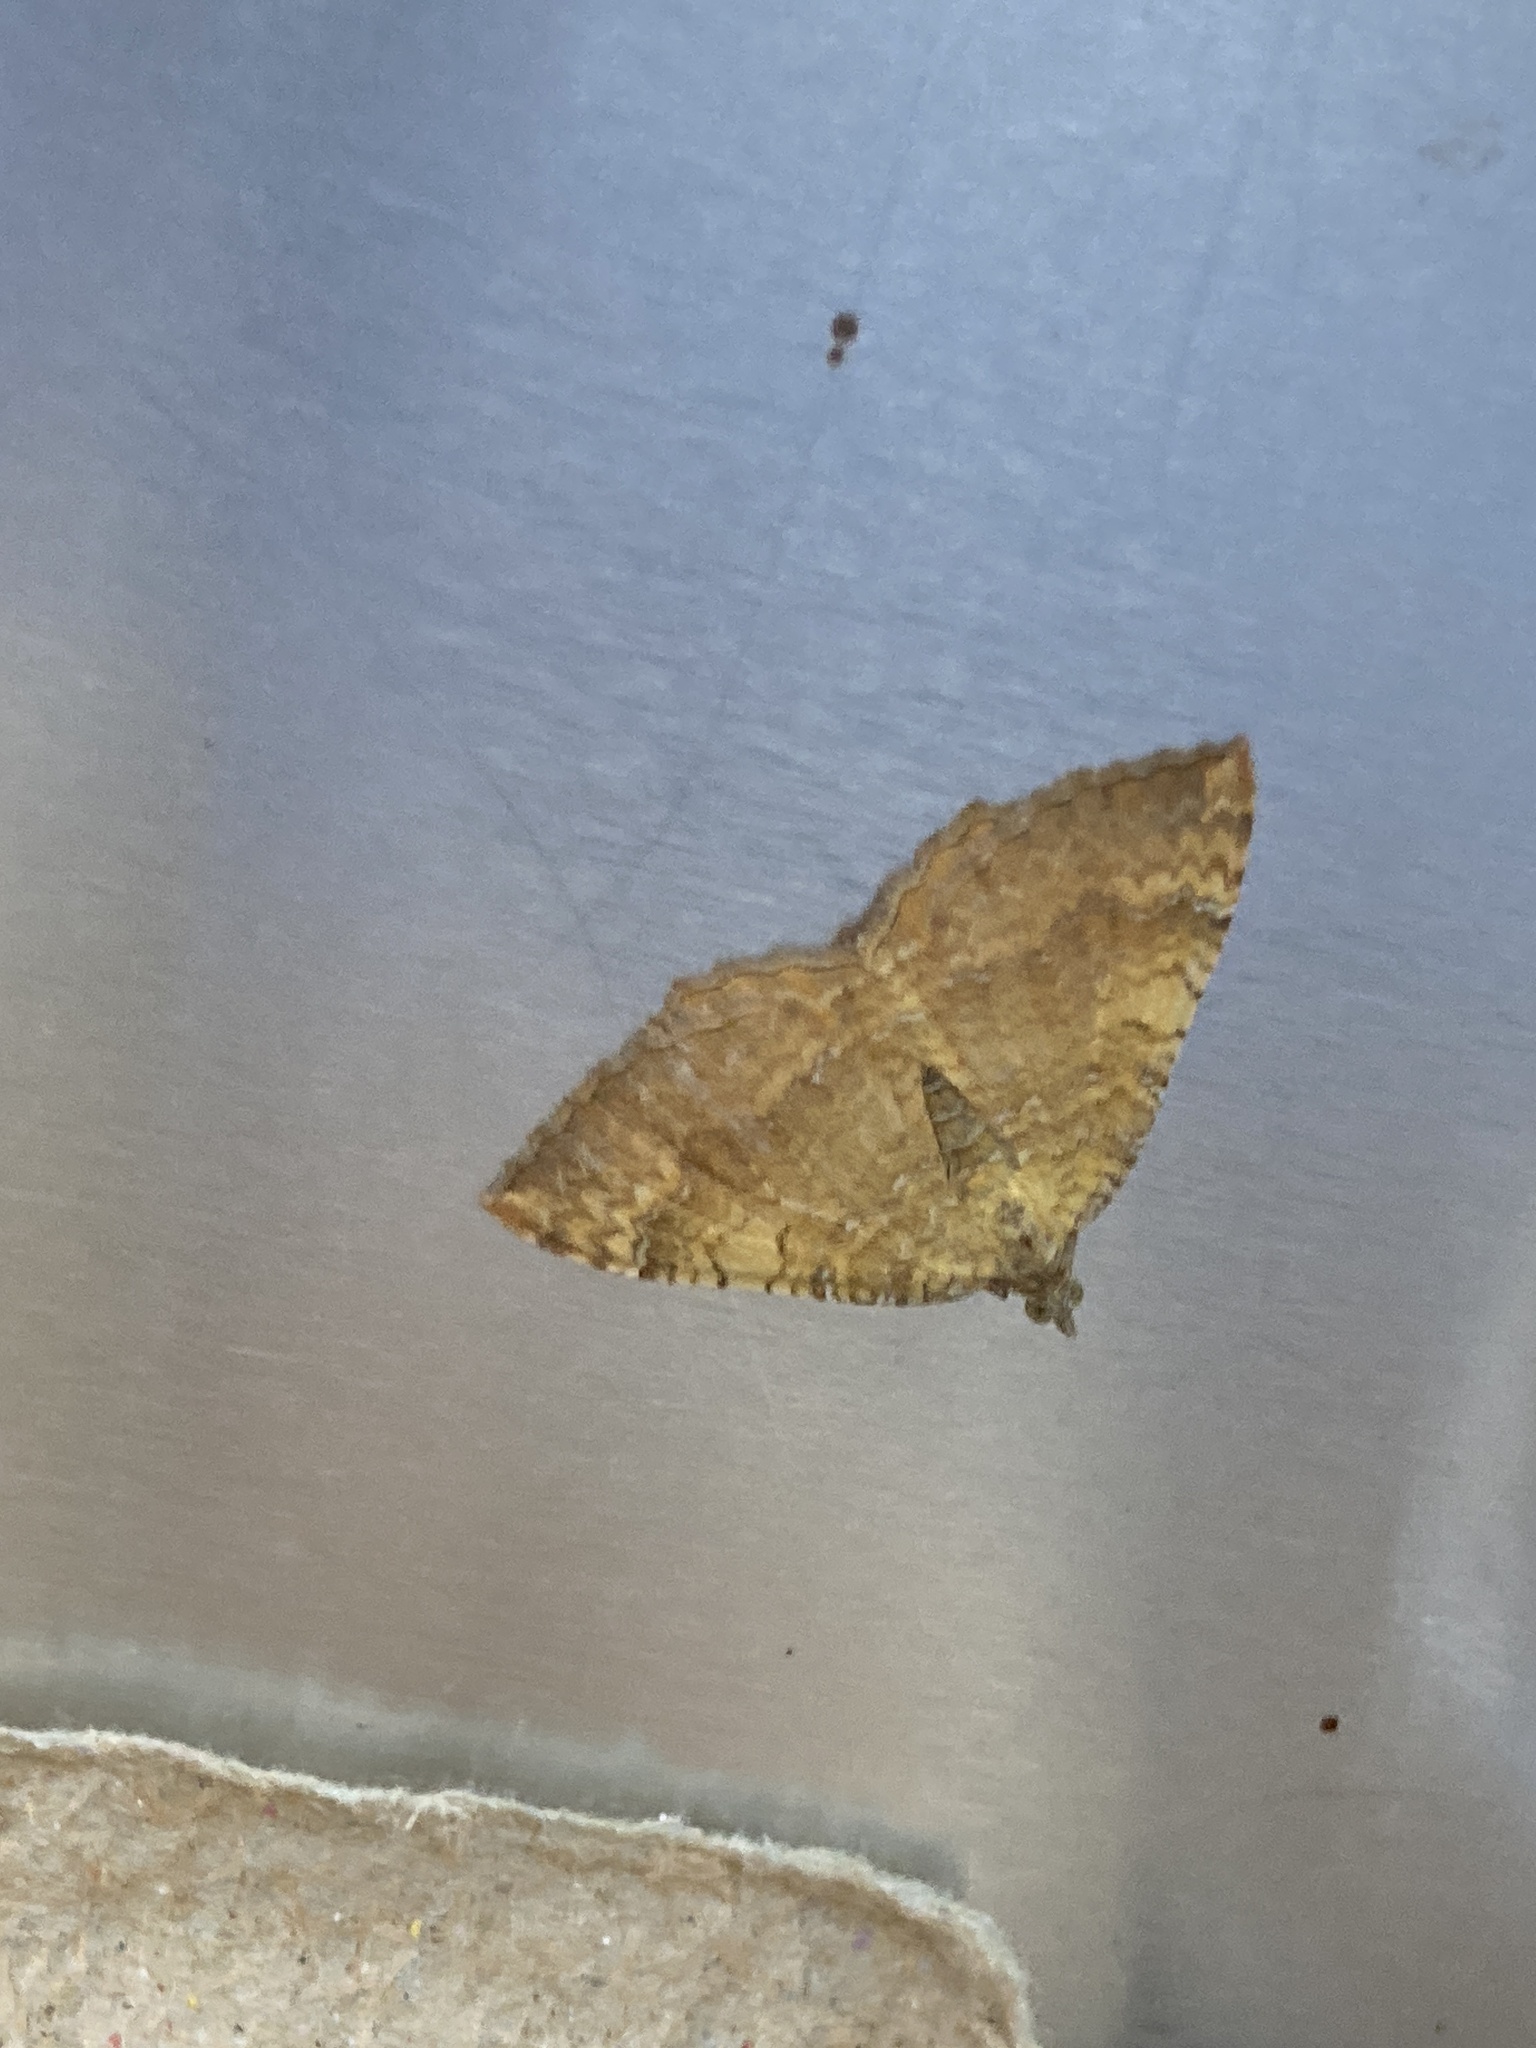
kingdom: Animalia
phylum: Arthropoda
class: Insecta
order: Lepidoptera
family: Geometridae
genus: Camptogramma
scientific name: Camptogramma bilineata
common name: Yellow shell
